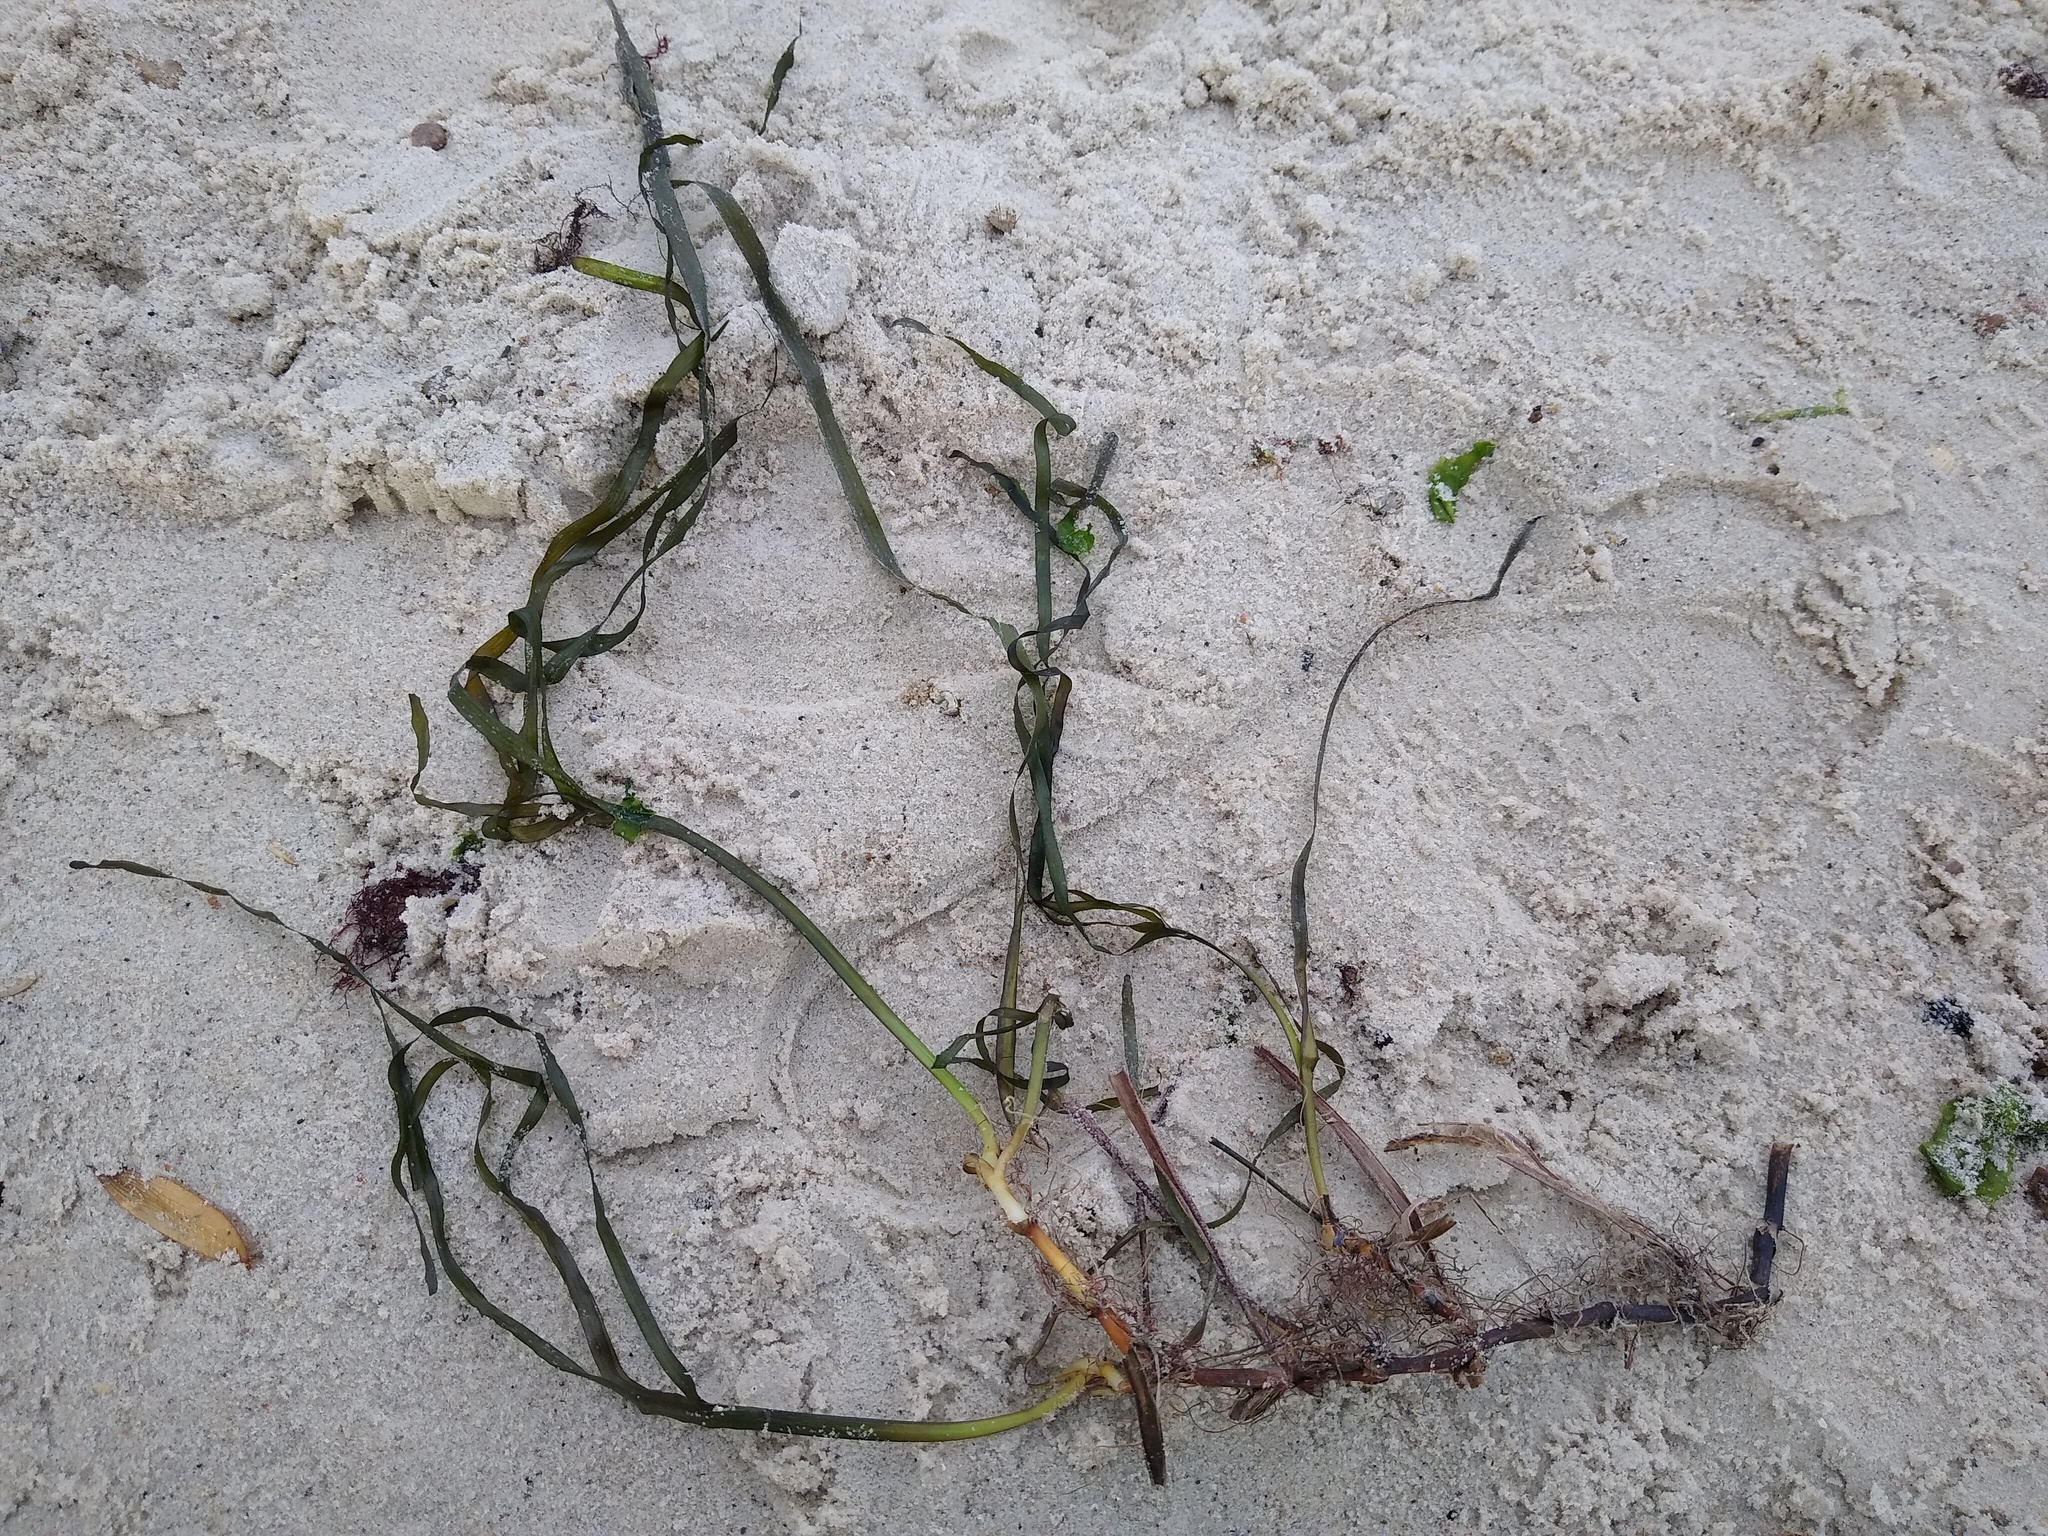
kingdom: Plantae
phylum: Tracheophyta
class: Liliopsida
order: Alismatales
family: Zosteraceae
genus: Zostera
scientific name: Zostera marina
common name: Eelgrass
